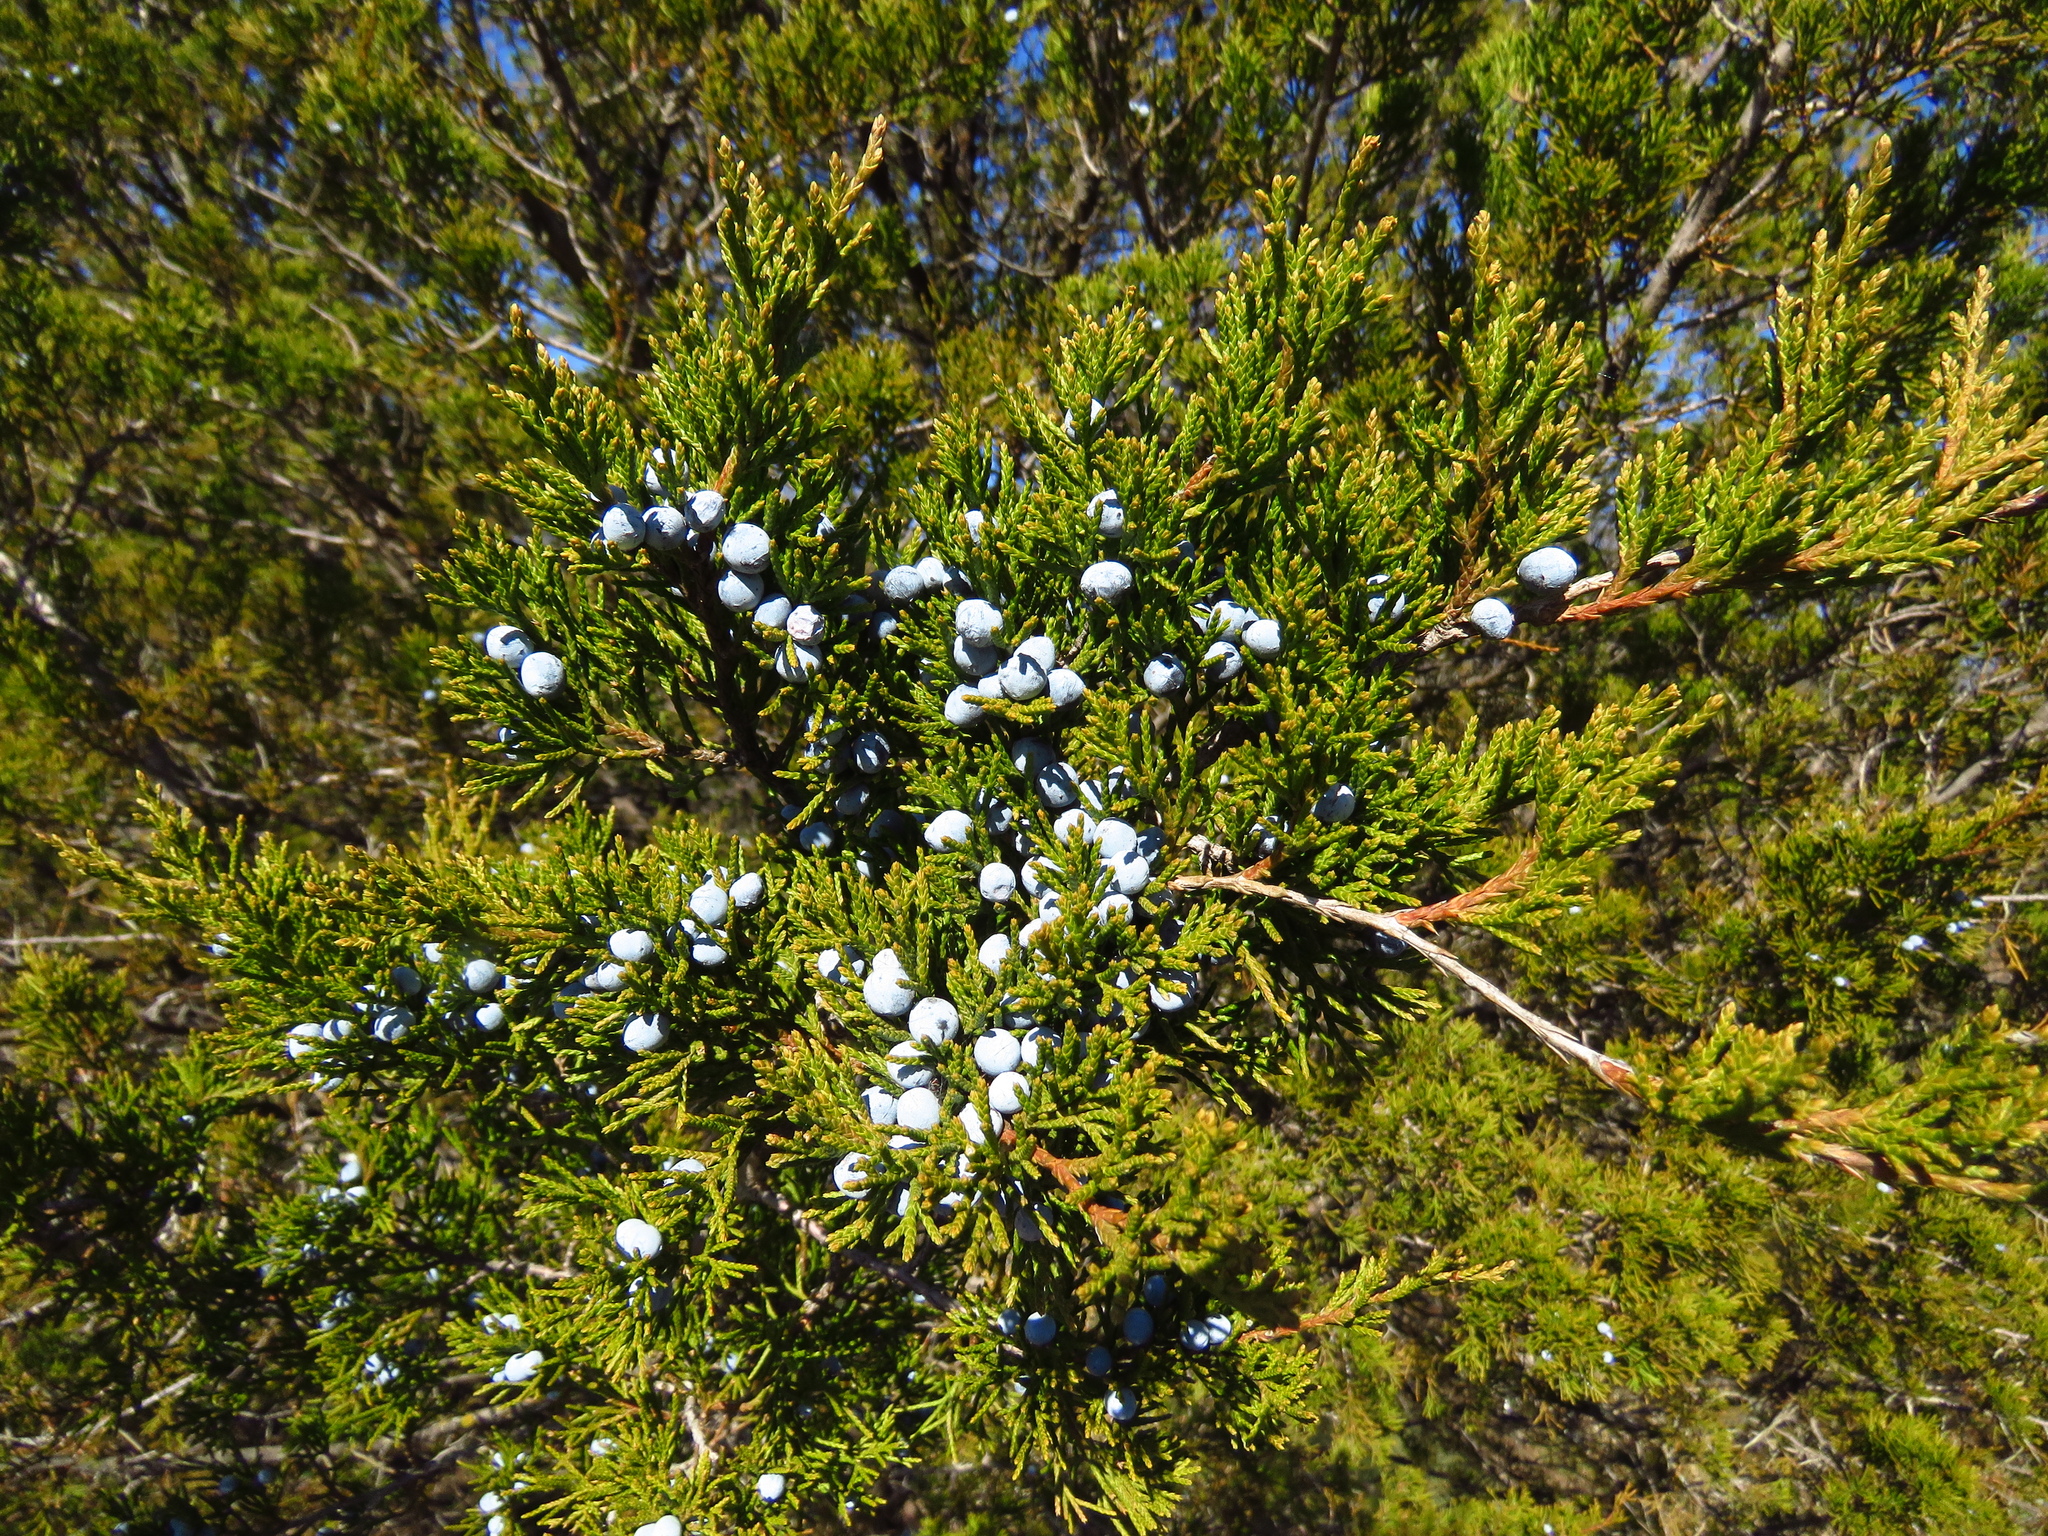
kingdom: Plantae
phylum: Tracheophyta
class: Pinopsida
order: Pinales
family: Cupressaceae
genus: Juniperus
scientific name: Juniperus virginiana
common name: Red juniper
